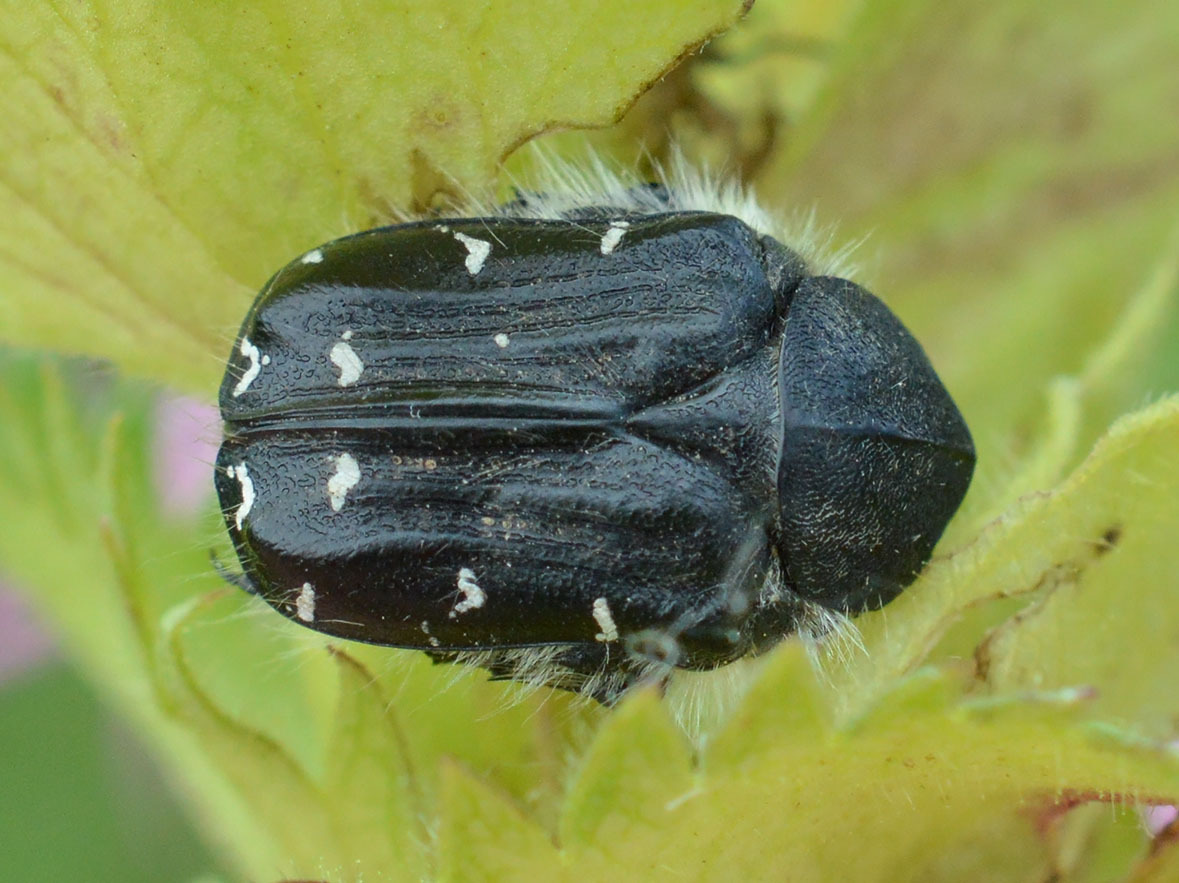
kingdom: Animalia
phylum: Arthropoda
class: Insecta
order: Coleoptera
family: Scarabaeidae
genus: Tropinota
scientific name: Tropinota hirta
